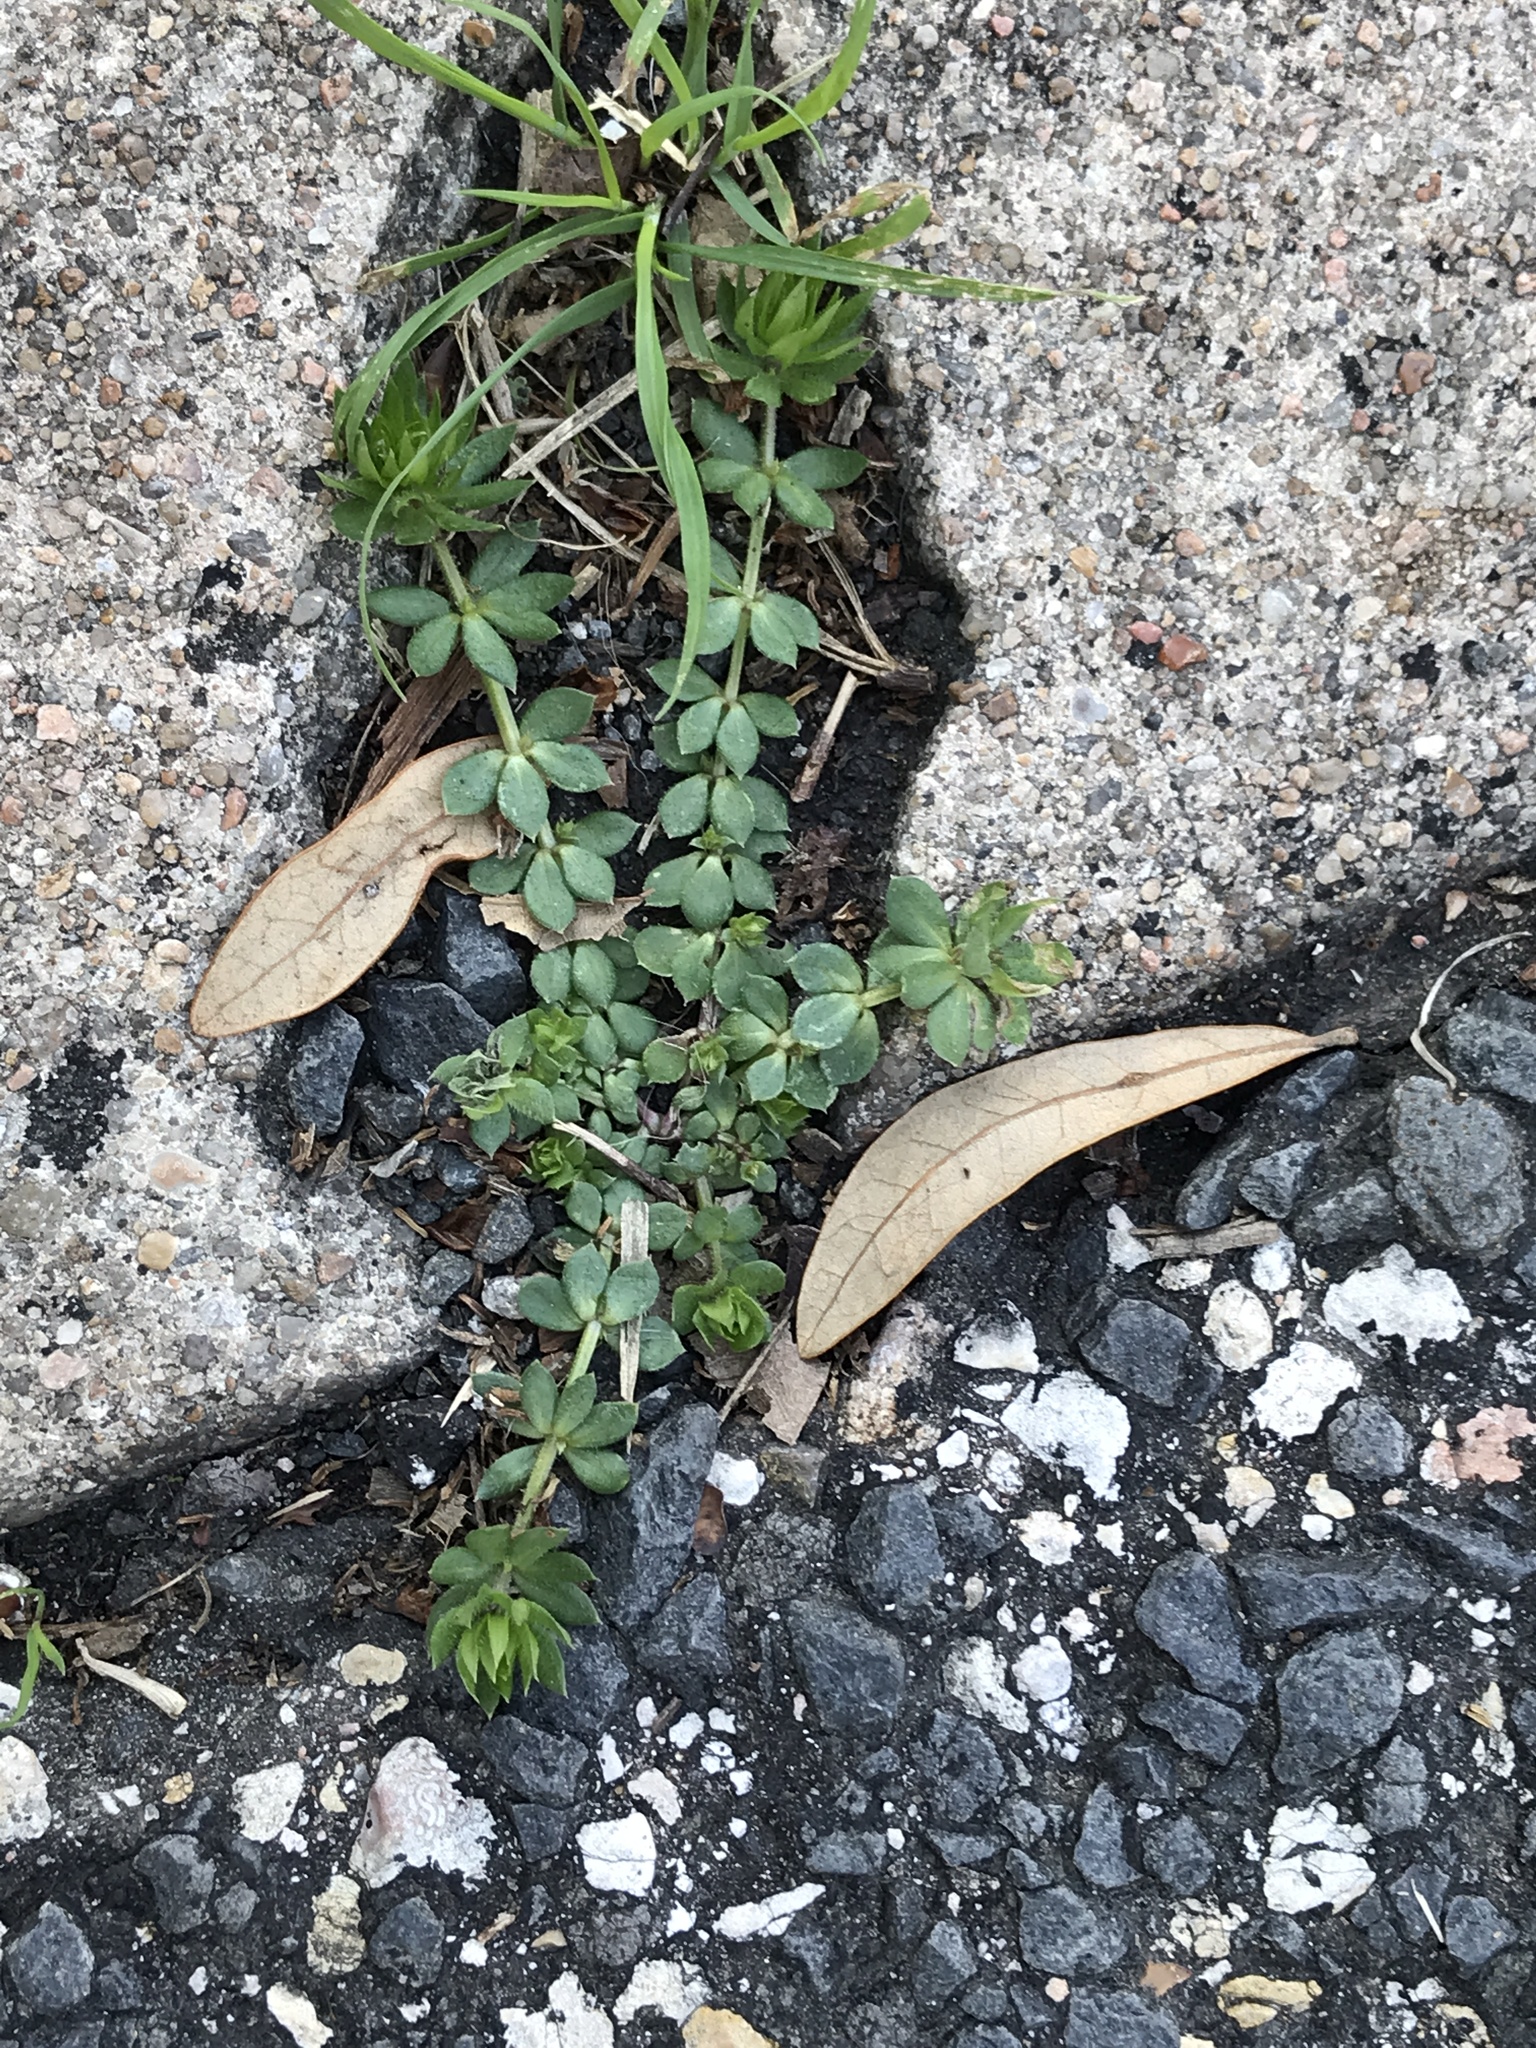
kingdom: Plantae
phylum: Tracheophyta
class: Magnoliopsida
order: Gentianales
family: Rubiaceae
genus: Sherardia
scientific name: Sherardia arvensis
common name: Field madder
